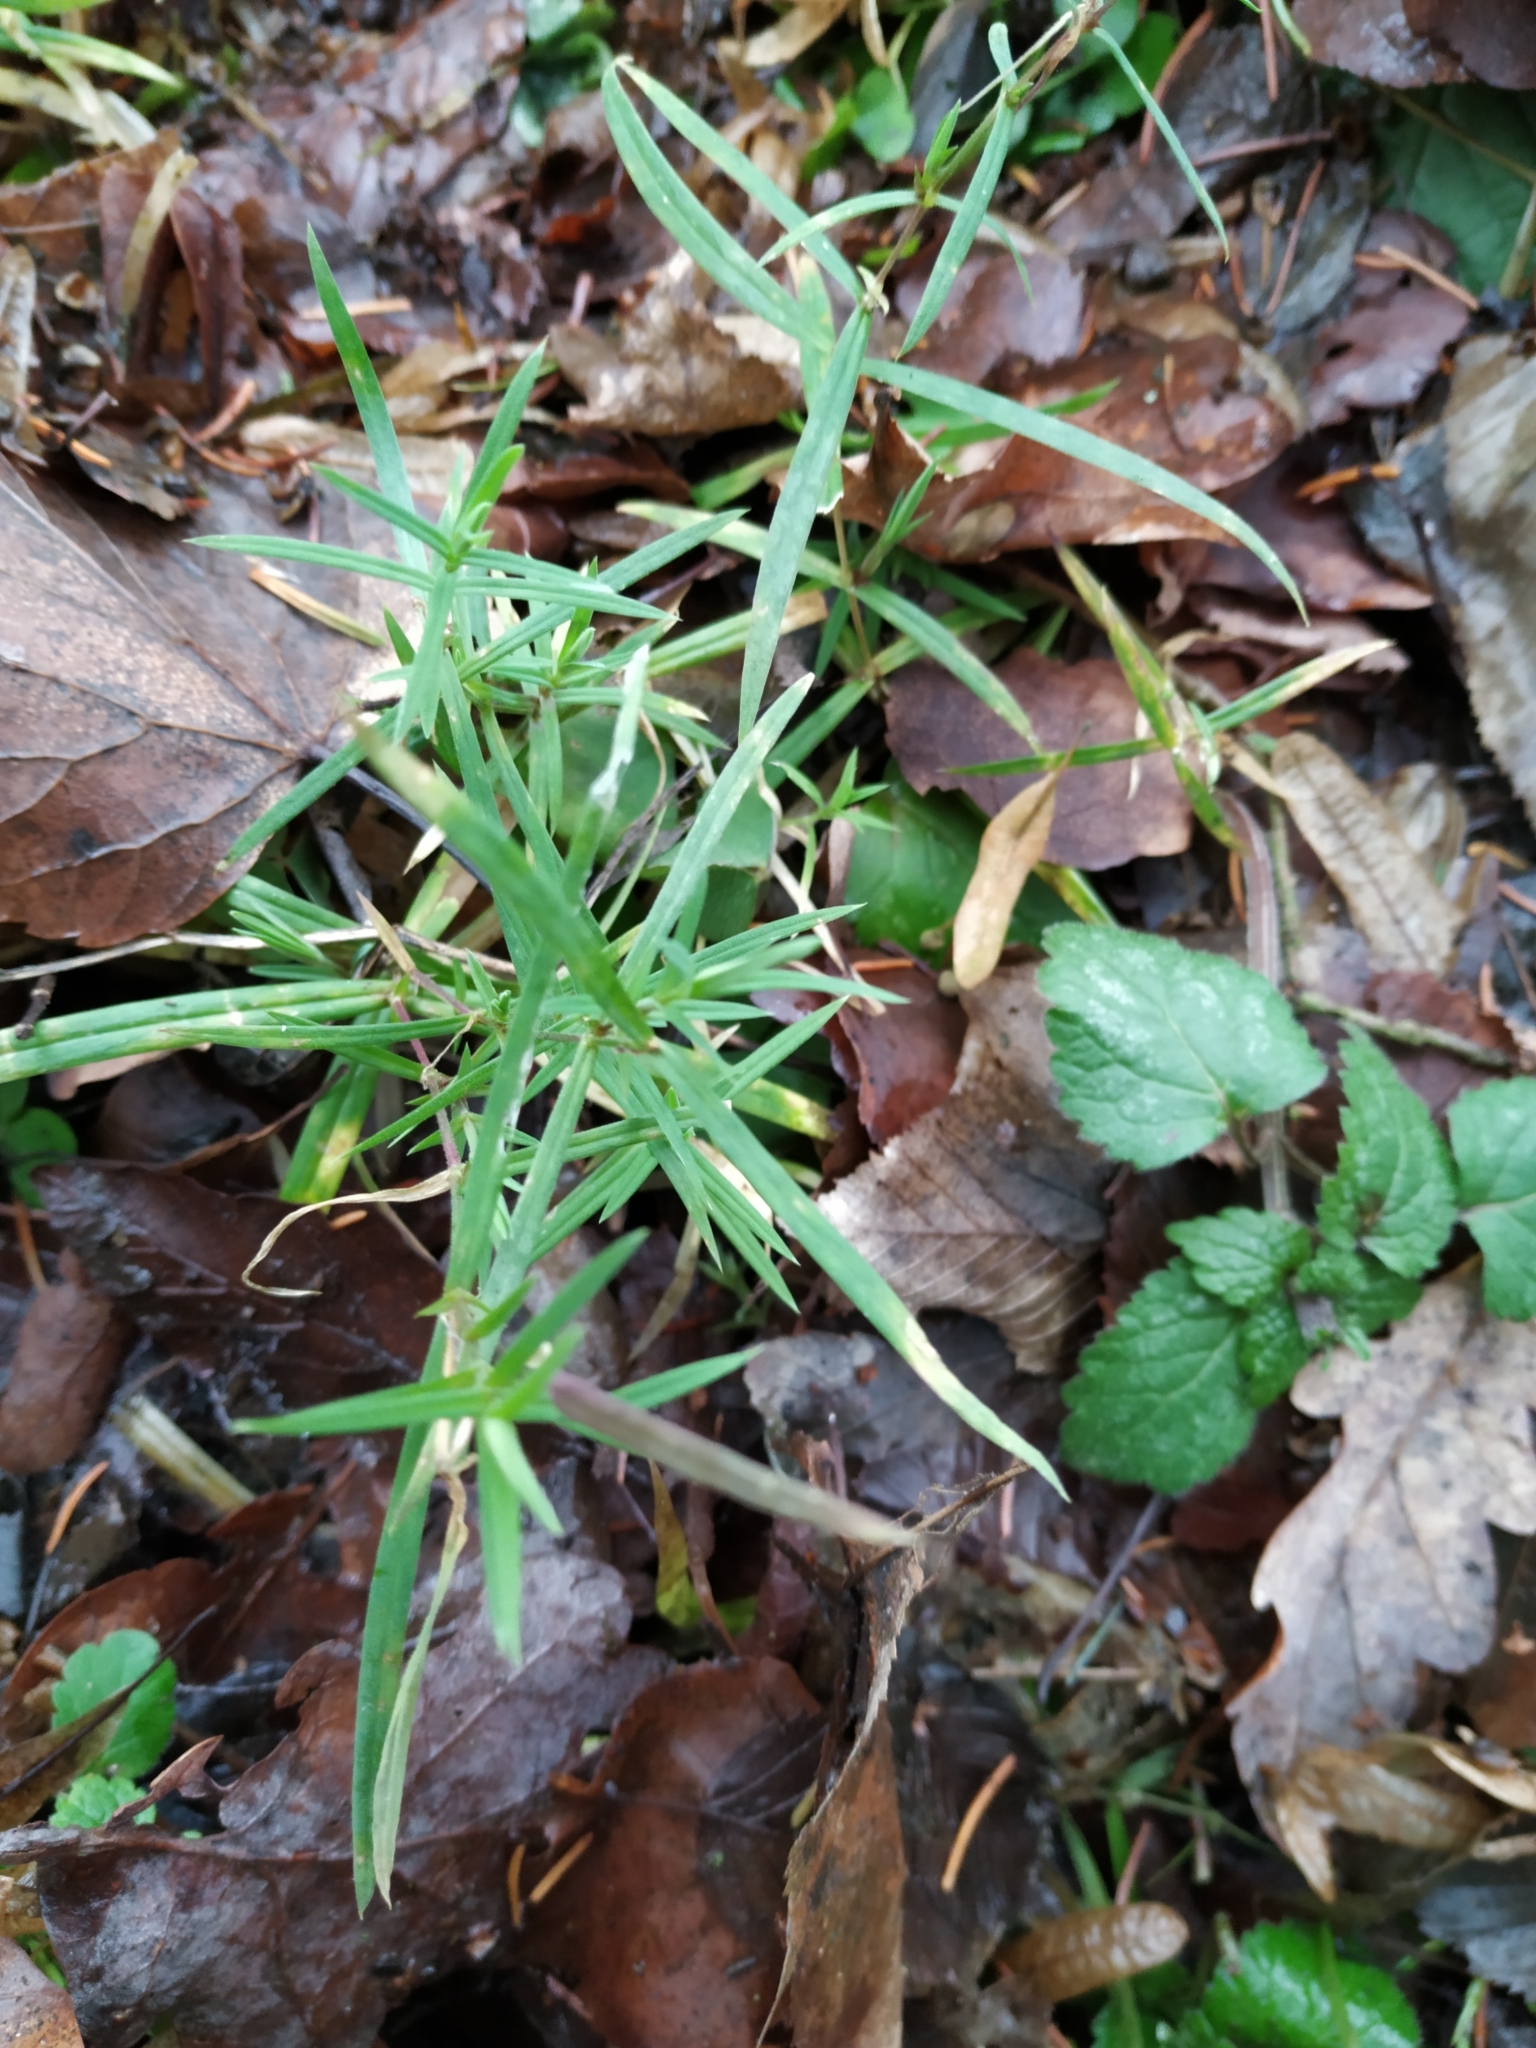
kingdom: Plantae
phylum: Tracheophyta
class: Magnoliopsida
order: Caryophyllales
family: Caryophyllaceae
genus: Rabelera
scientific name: Rabelera holostea
